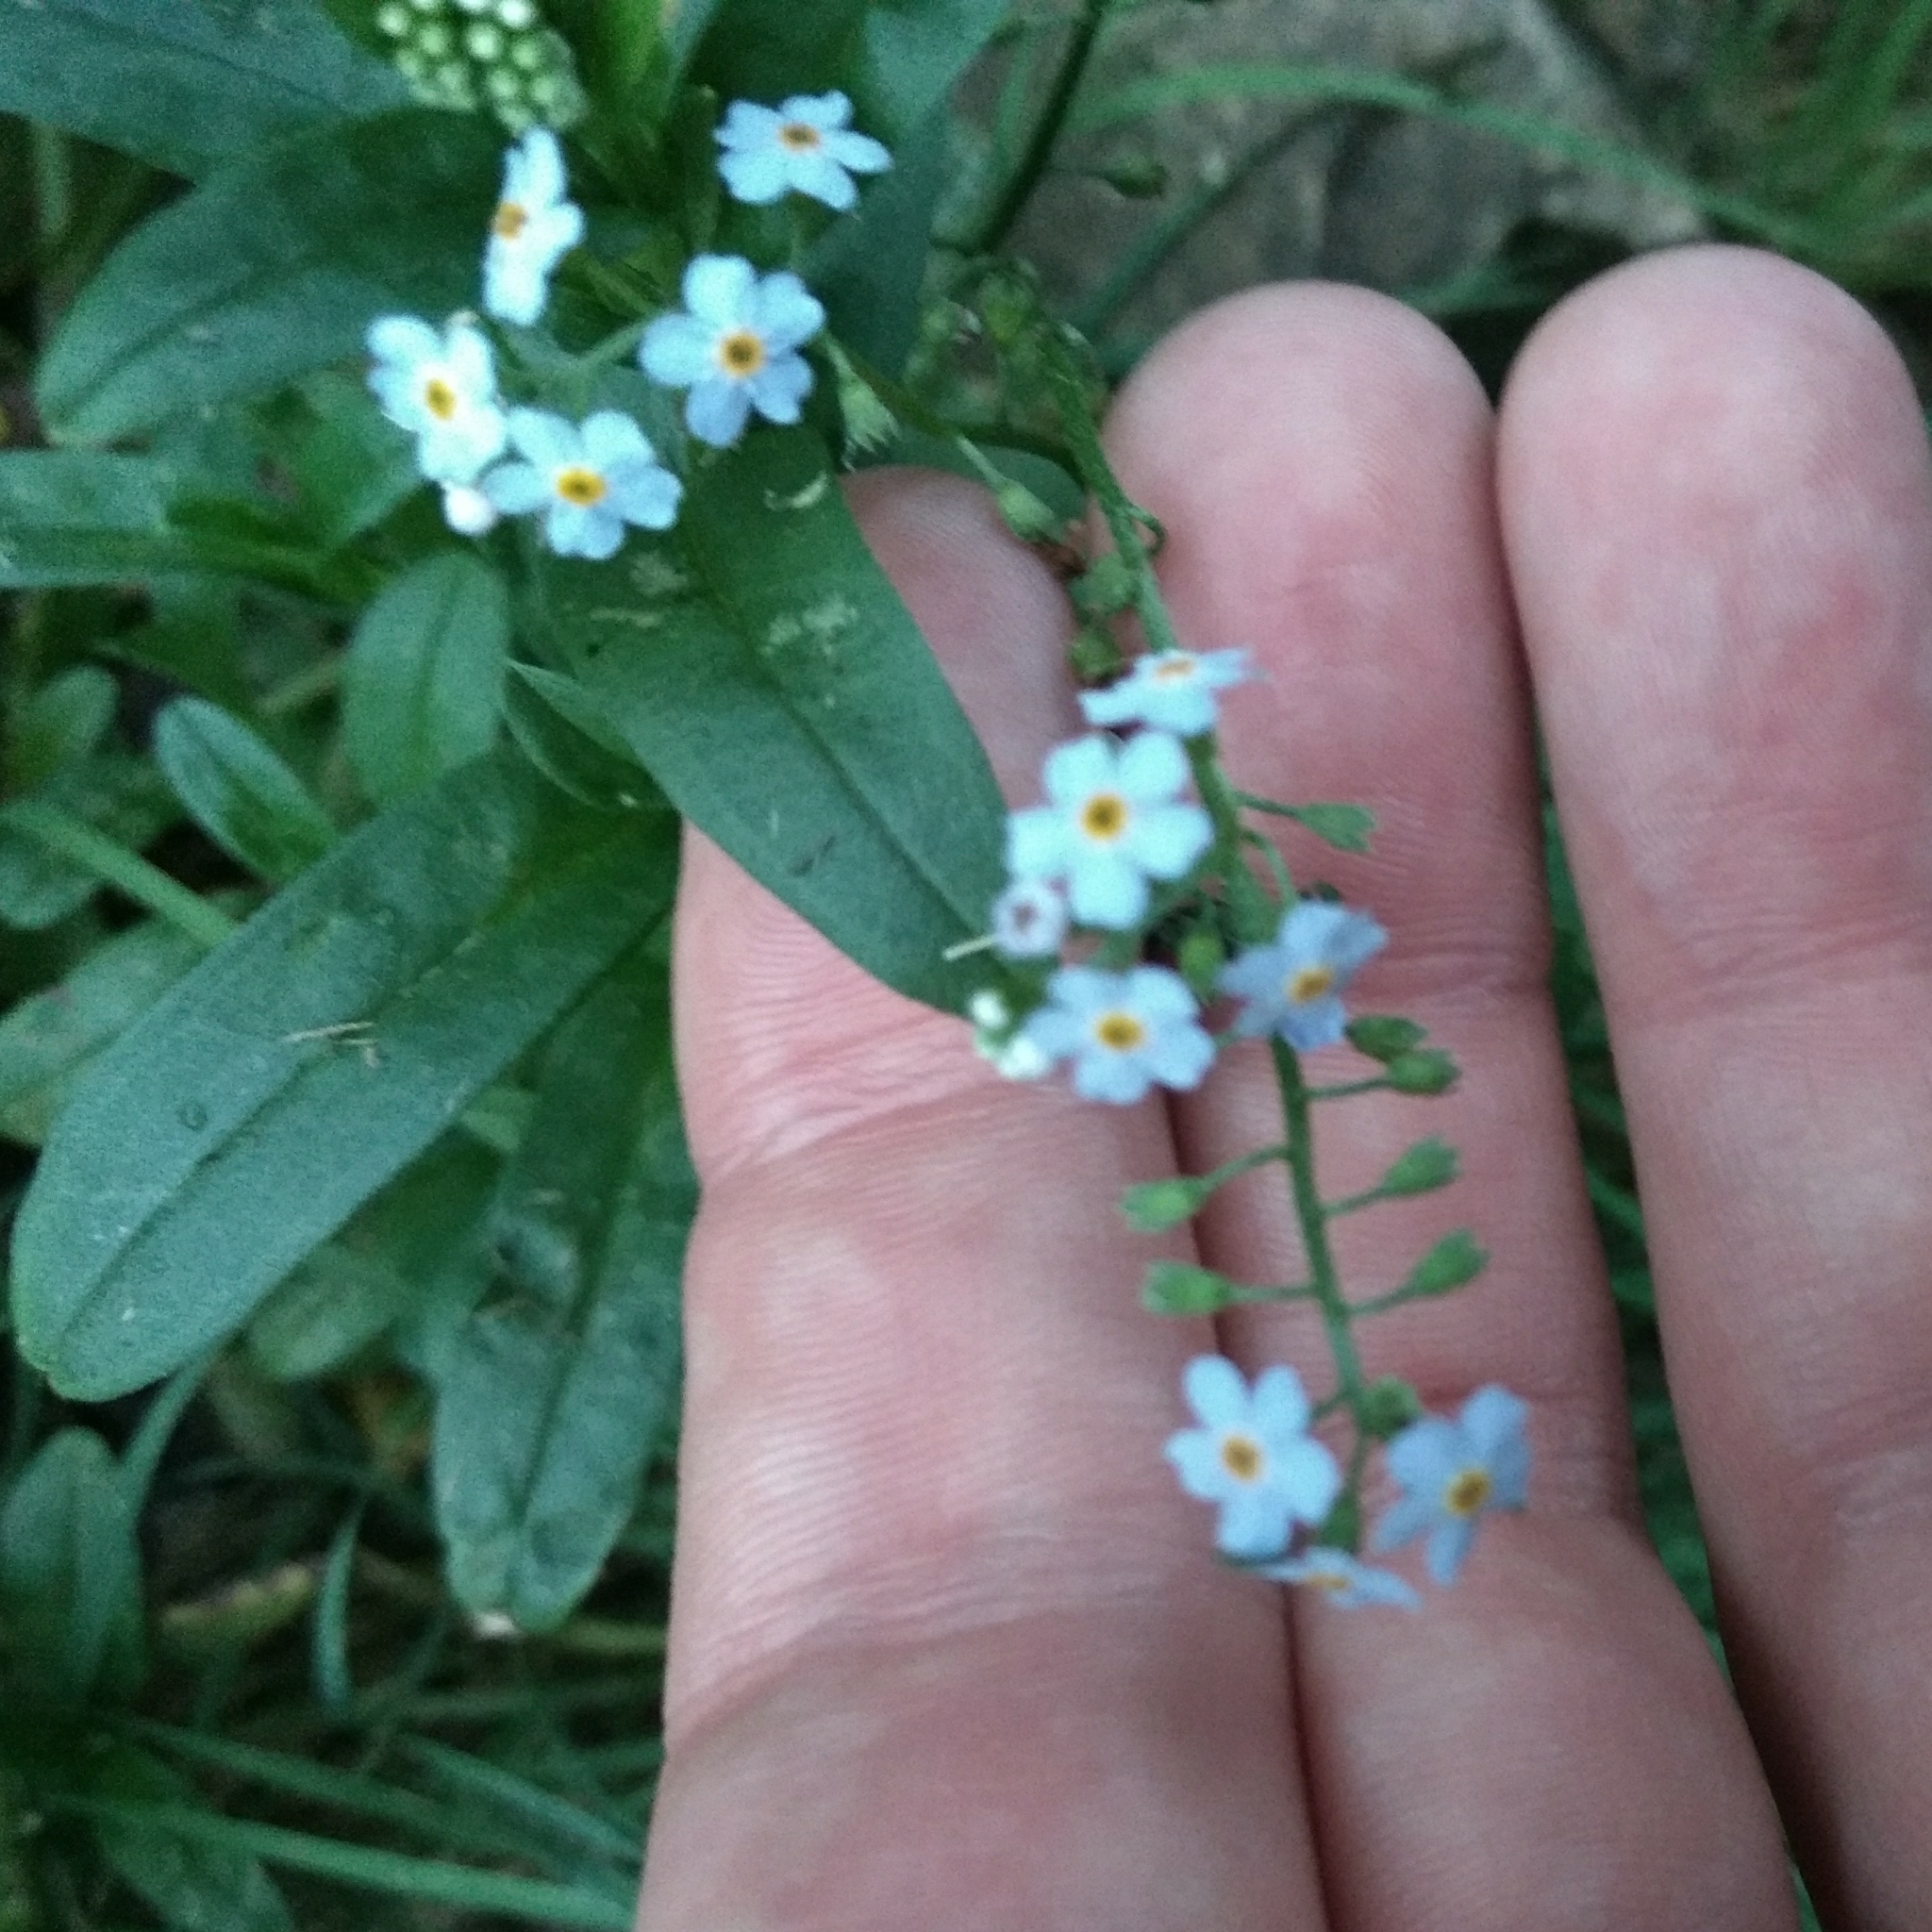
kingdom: Plantae
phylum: Tracheophyta
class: Magnoliopsida
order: Boraginales
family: Boraginaceae
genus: Myosotis
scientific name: Myosotis scorpioides
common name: Water forget-me-not
